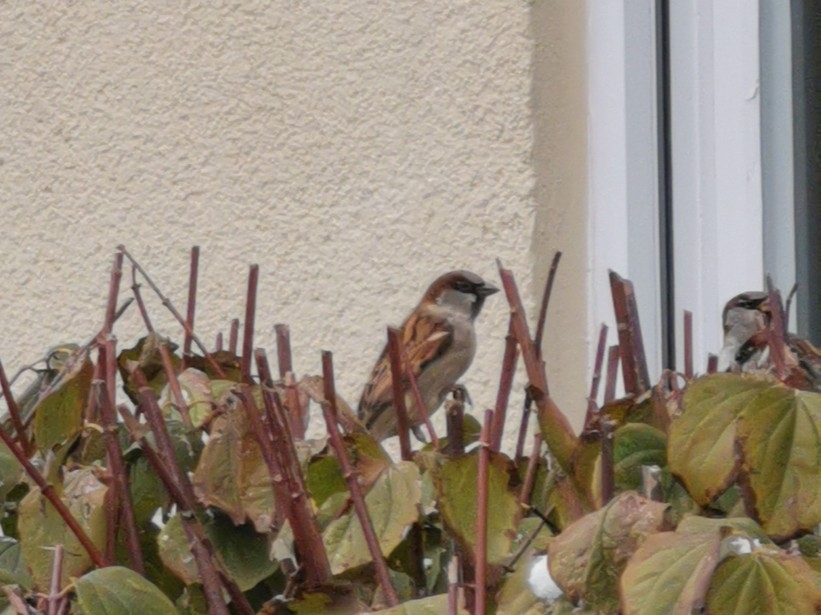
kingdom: Animalia
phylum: Chordata
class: Aves
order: Passeriformes
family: Passeridae
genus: Passer
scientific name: Passer domesticus
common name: House sparrow
